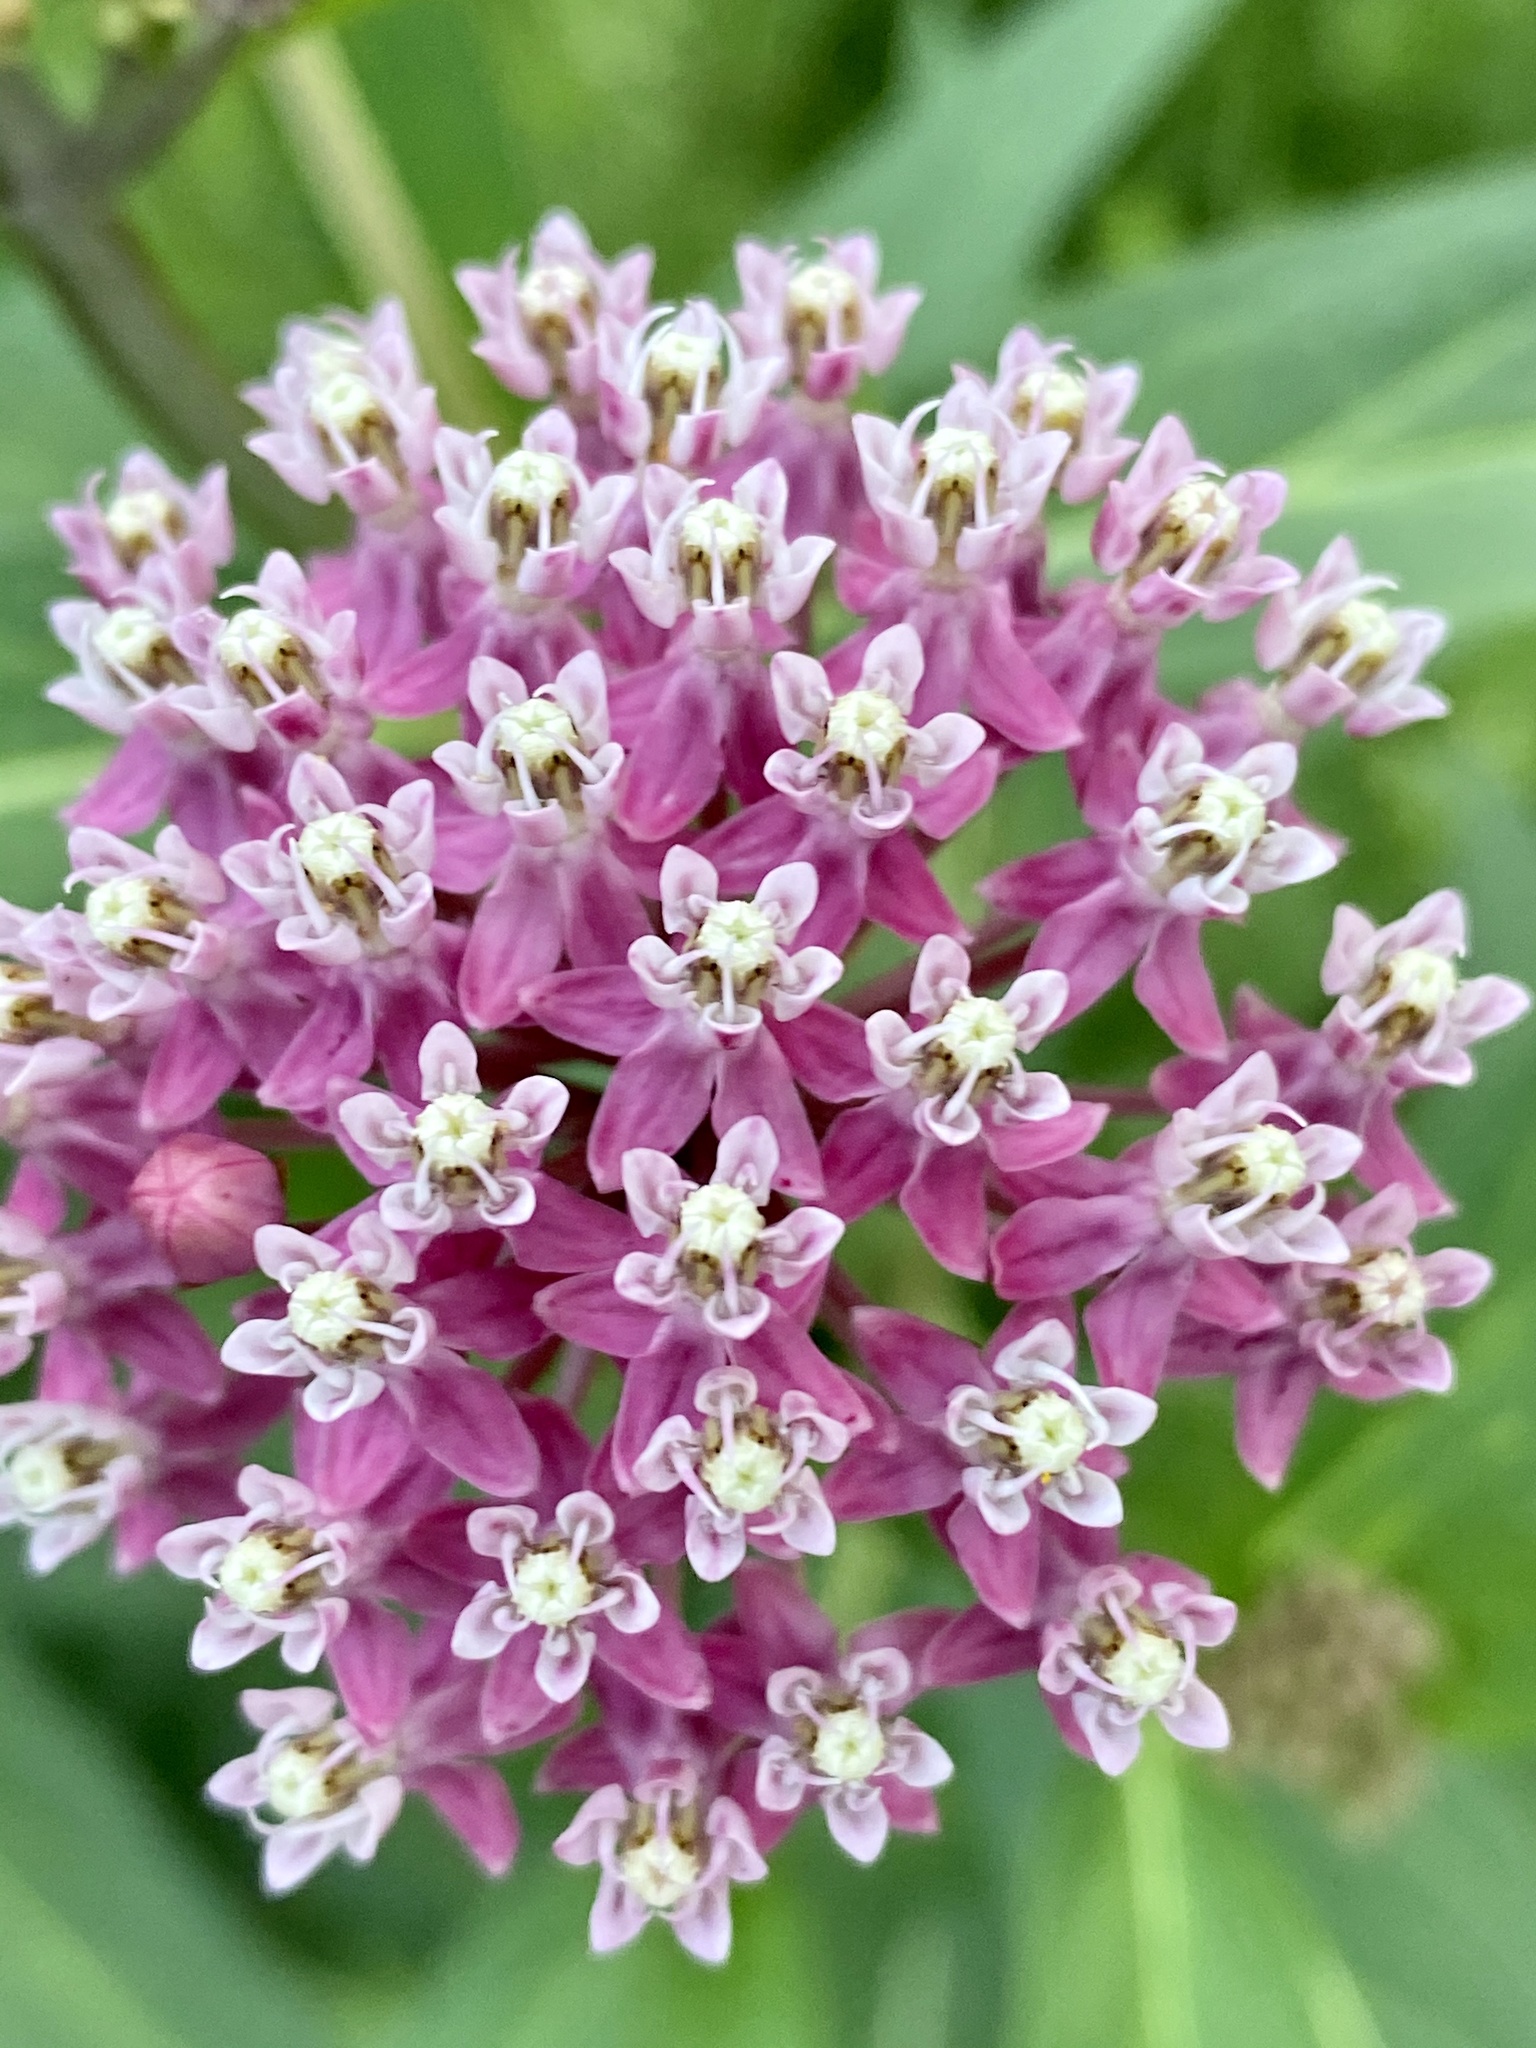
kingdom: Plantae
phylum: Tracheophyta
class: Magnoliopsida
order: Gentianales
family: Apocynaceae
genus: Asclepias
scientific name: Asclepias incarnata
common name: Swamp milkweed
